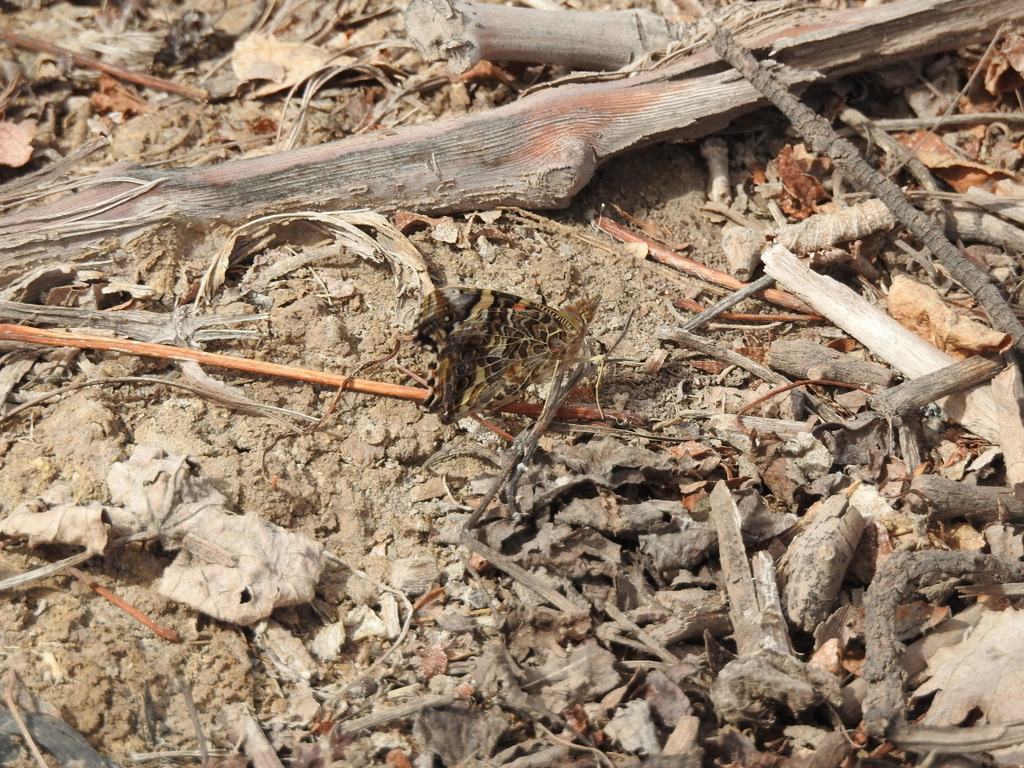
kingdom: Animalia
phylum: Arthropoda
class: Insecta
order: Lepidoptera
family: Nymphalidae
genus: Vanessa
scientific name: Vanessa carye
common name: Subtropical lady
